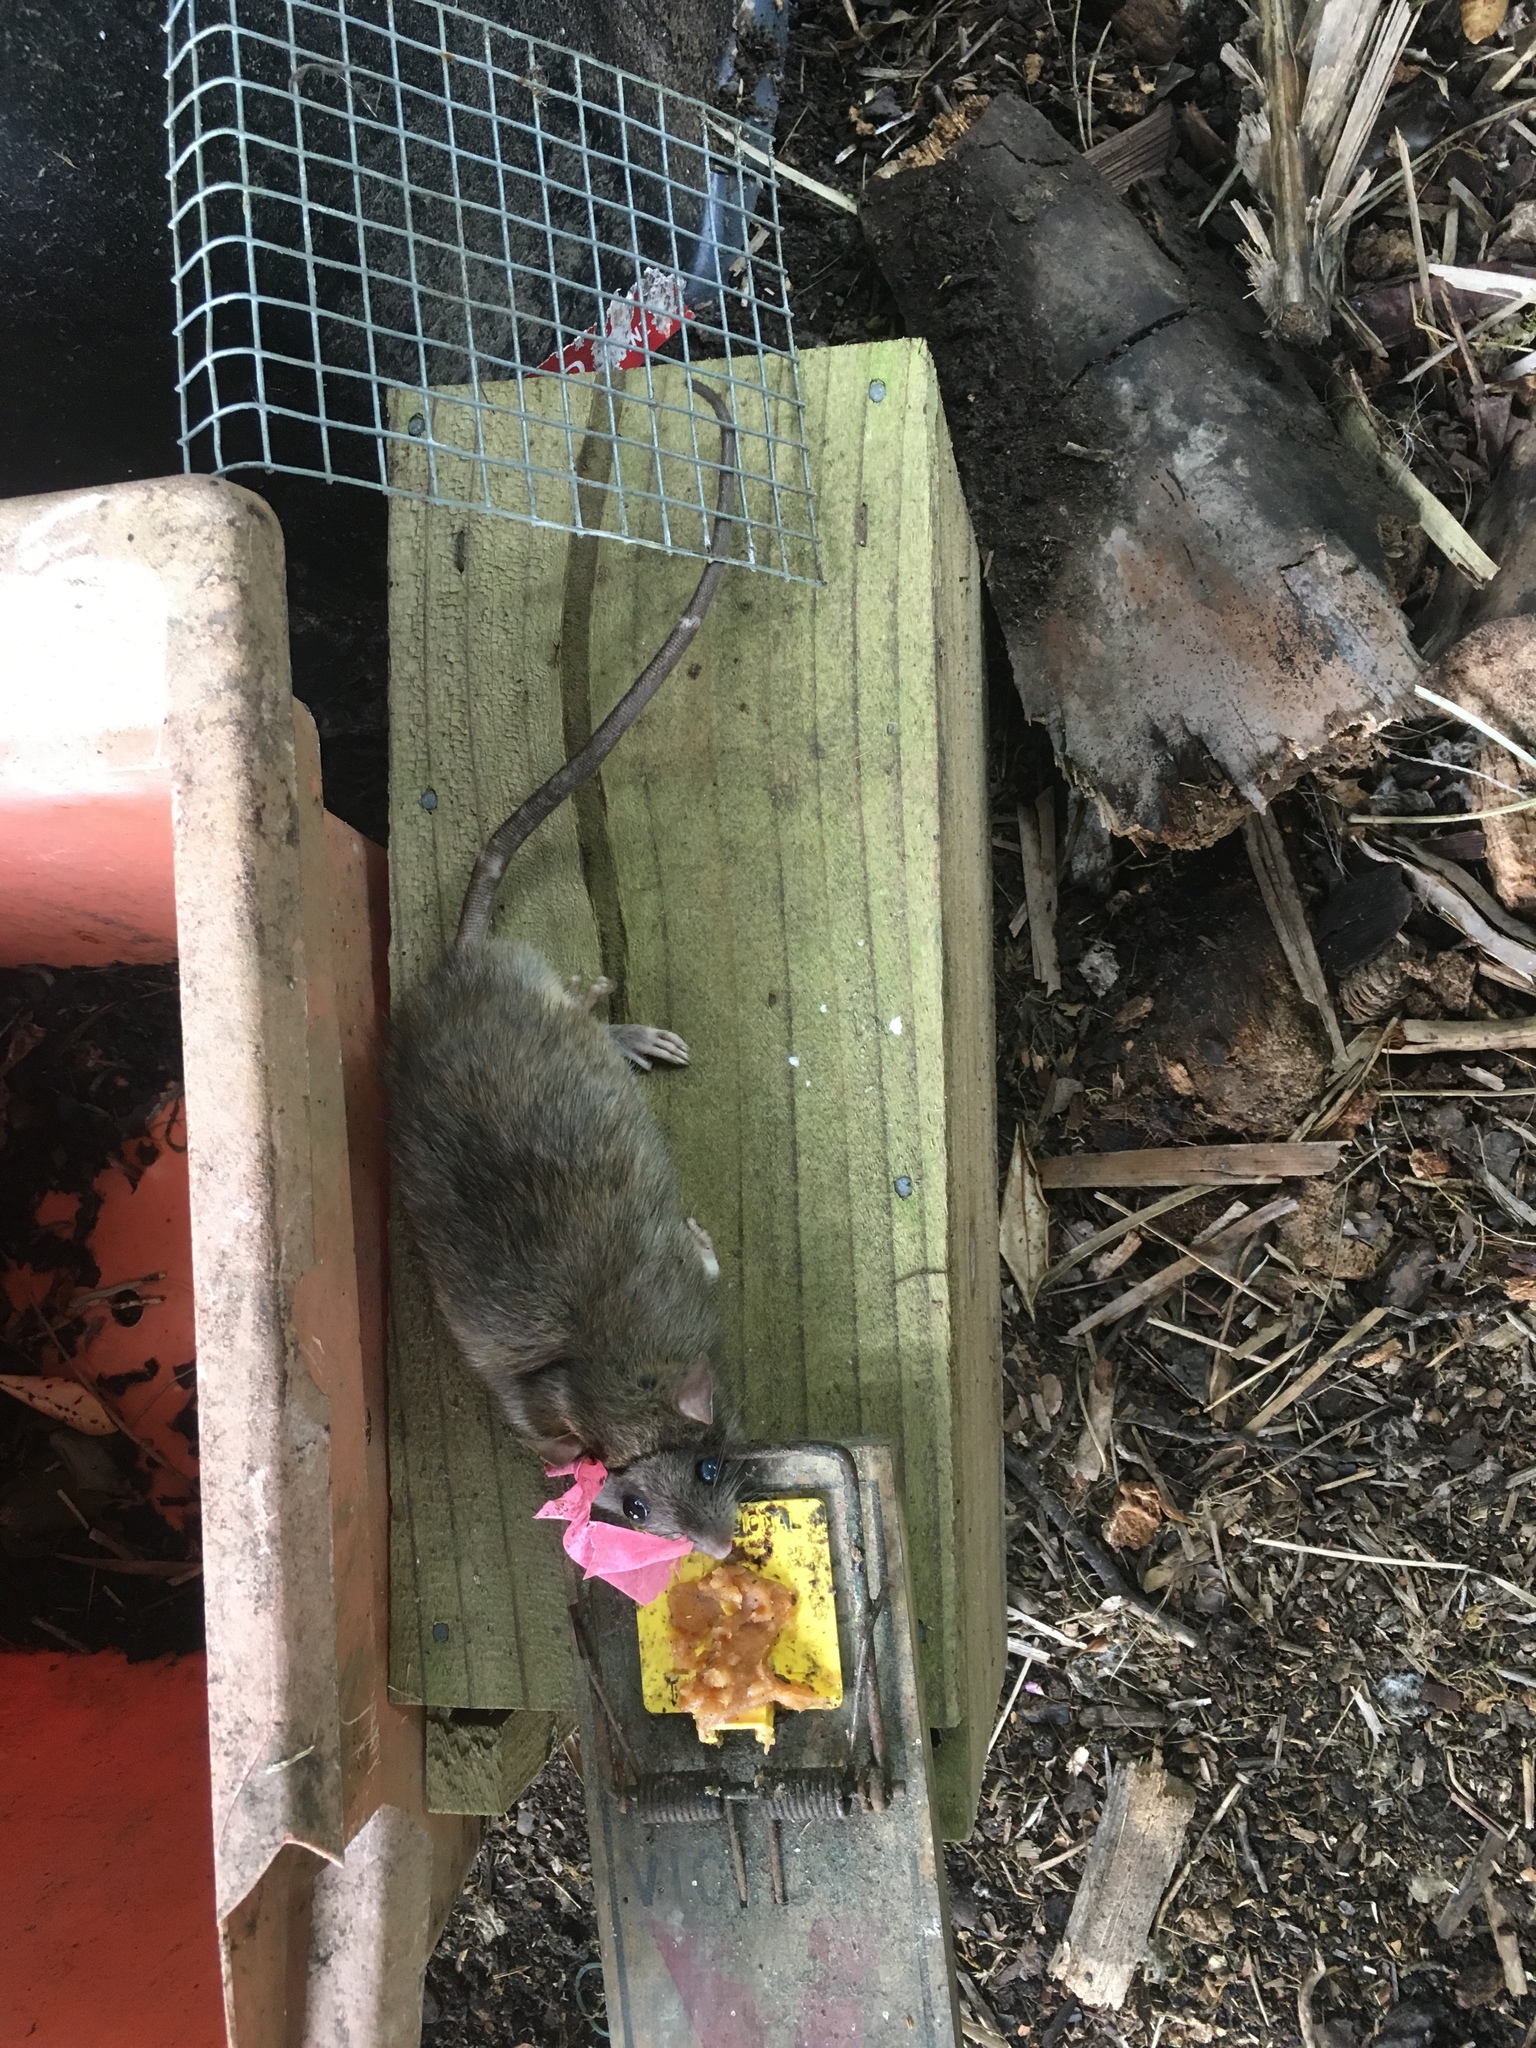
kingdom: Animalia
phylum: Chordata
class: Mammalia
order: Rodentia
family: Muridae
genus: Rattus
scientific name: Rattus rattus
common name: Black rat
